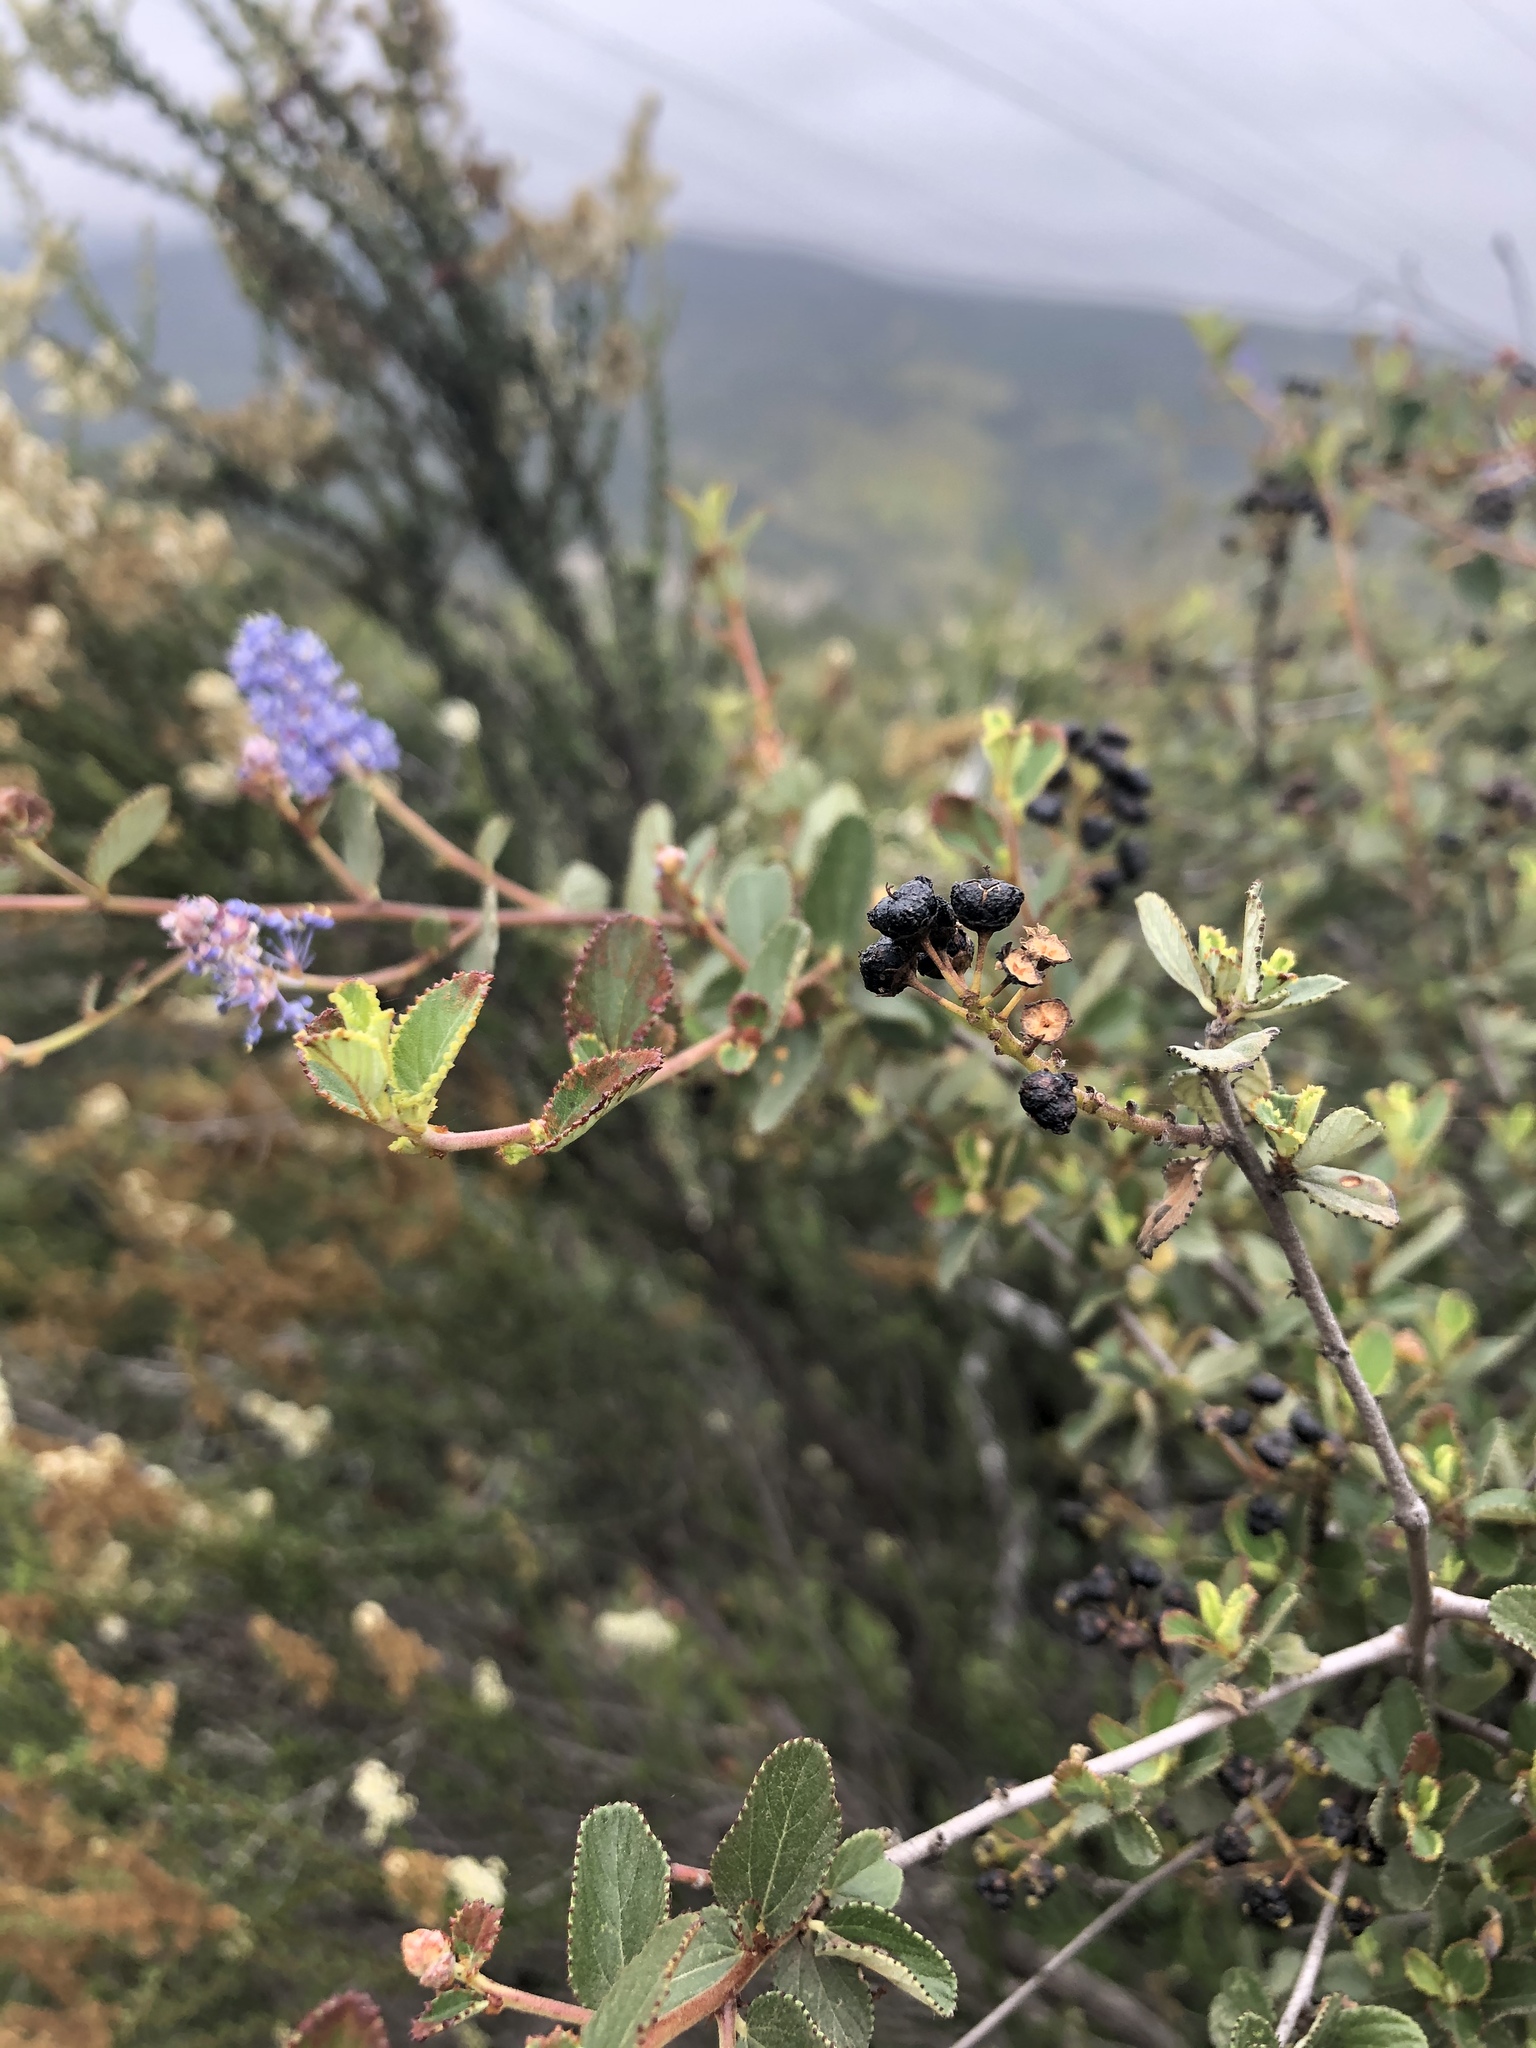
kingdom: Plantae
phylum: Tracheophyta
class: Magnoliopsida
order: Rosales
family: Rhamnaceae
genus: Ceanothus
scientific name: Ceanothus tomentosus
